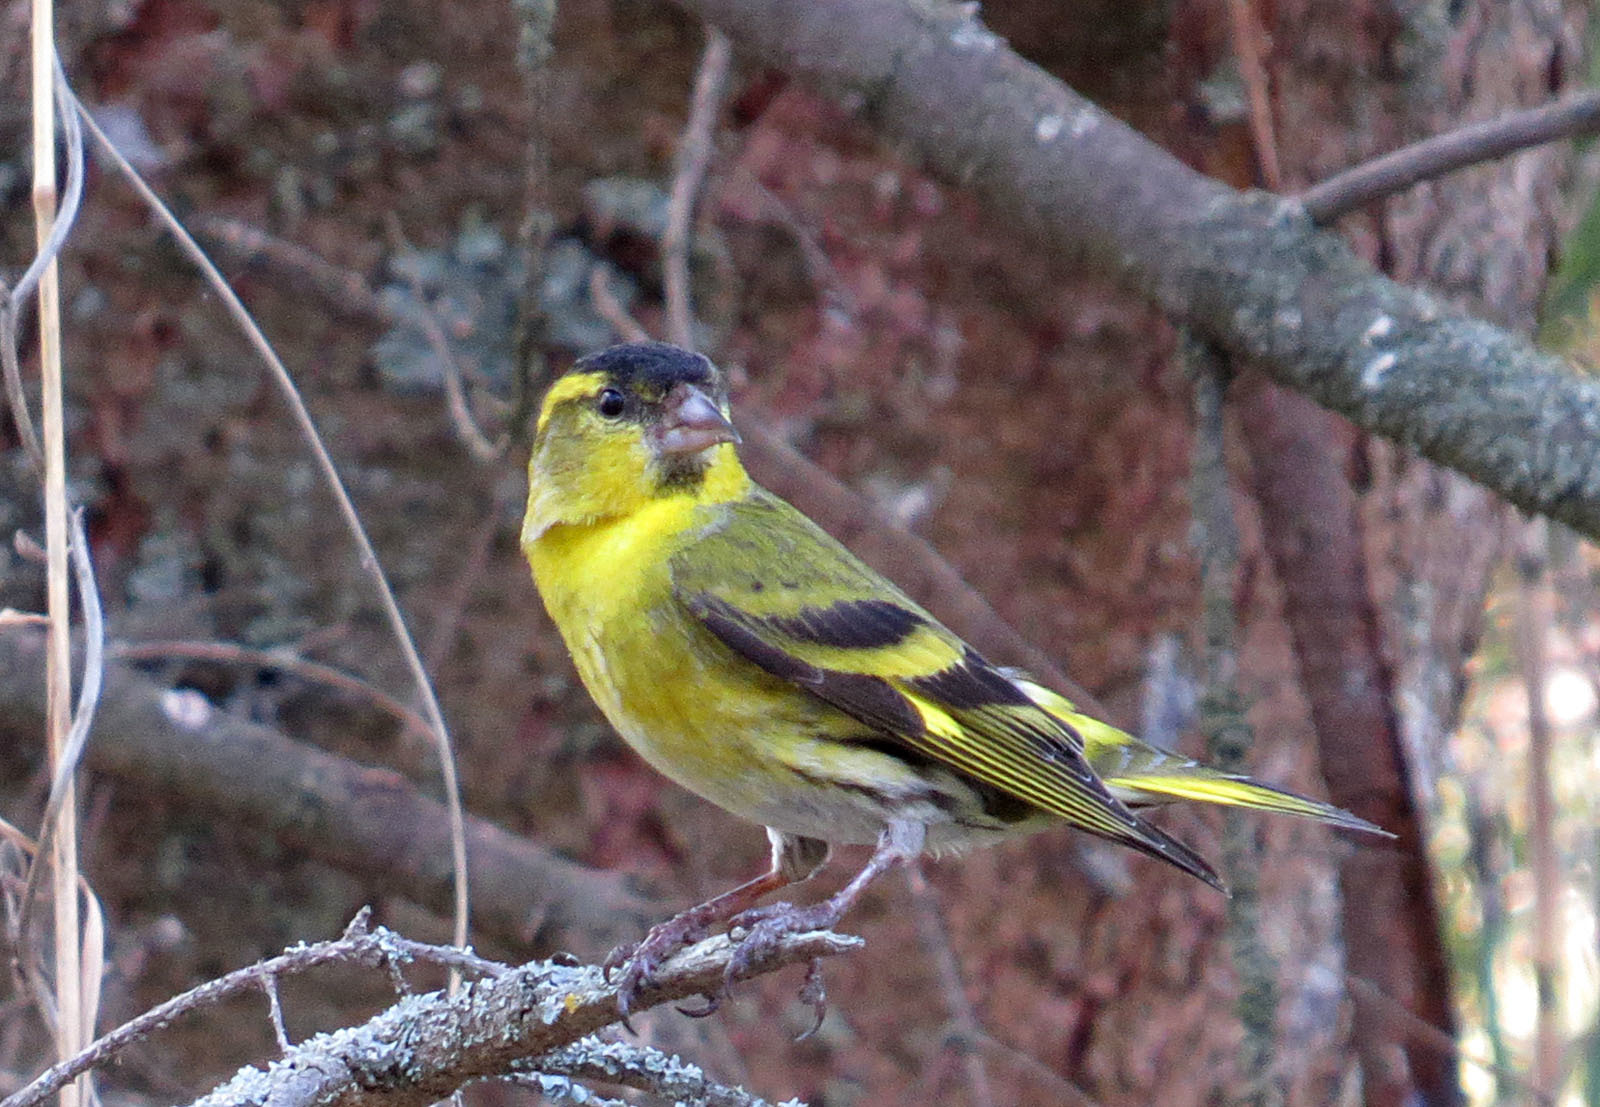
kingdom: Animalia
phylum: Chordata
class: Aves
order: Passeriformes
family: Fringillidae
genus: Spinus
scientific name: Spinus spinus
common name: Eurasian siskin
